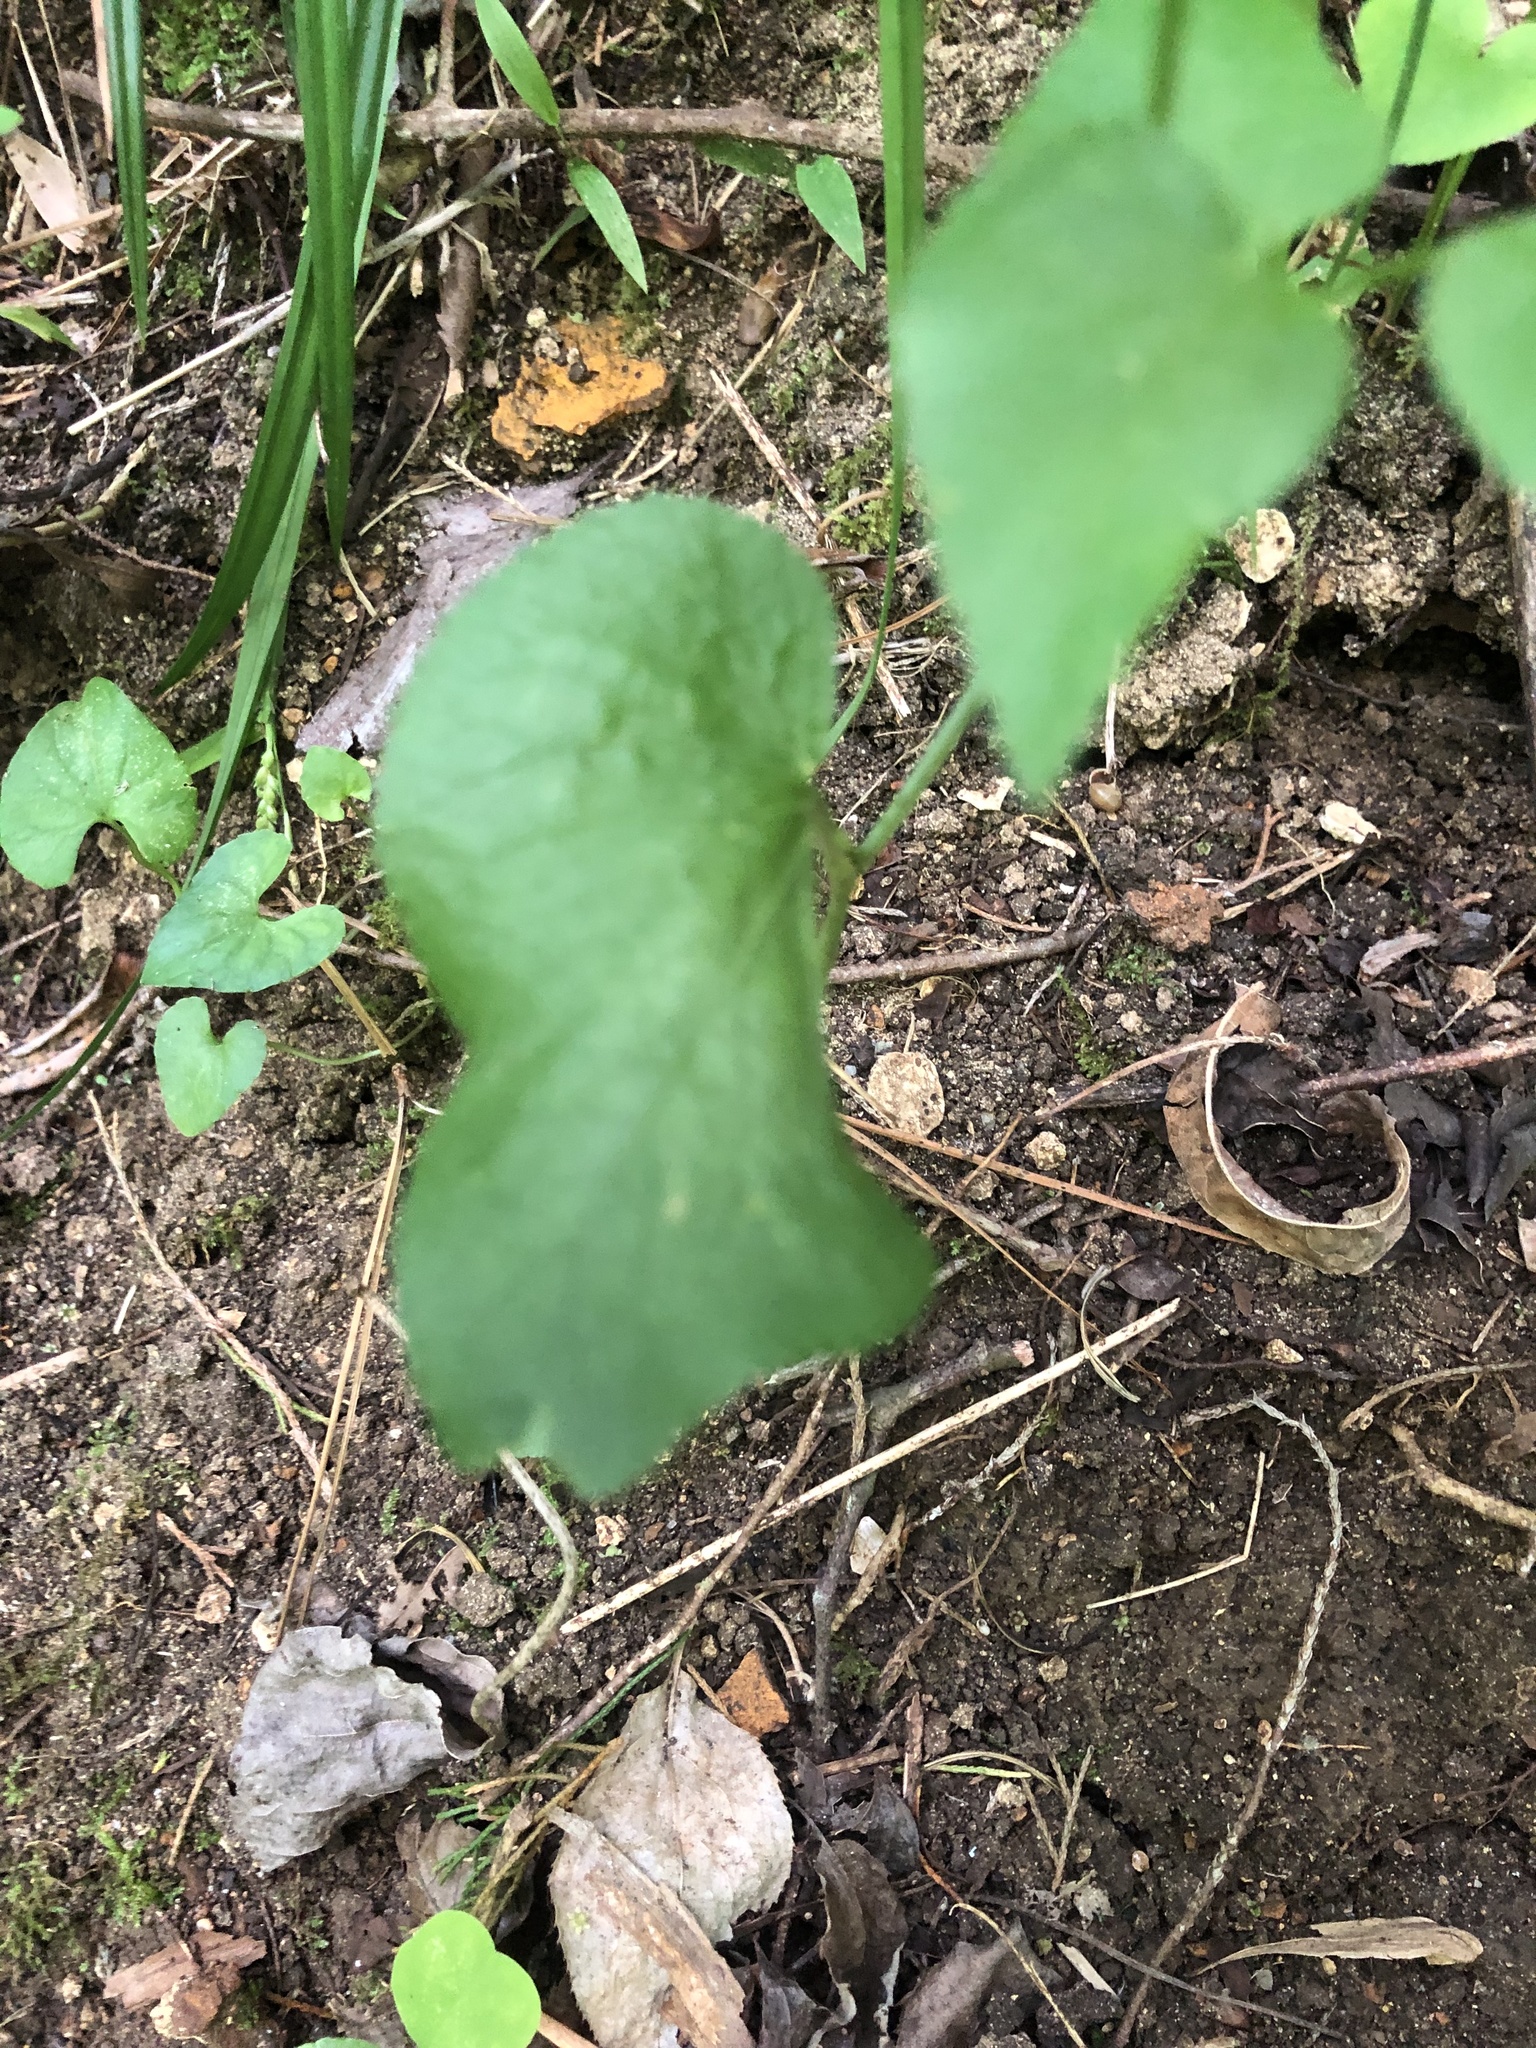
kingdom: Plantae
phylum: Tracheophyta
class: Magnoliopsida
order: Apiales
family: Apiaceae
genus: Thaspium
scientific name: Thaspium trifoliatum
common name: Purple meadow-parsnip
